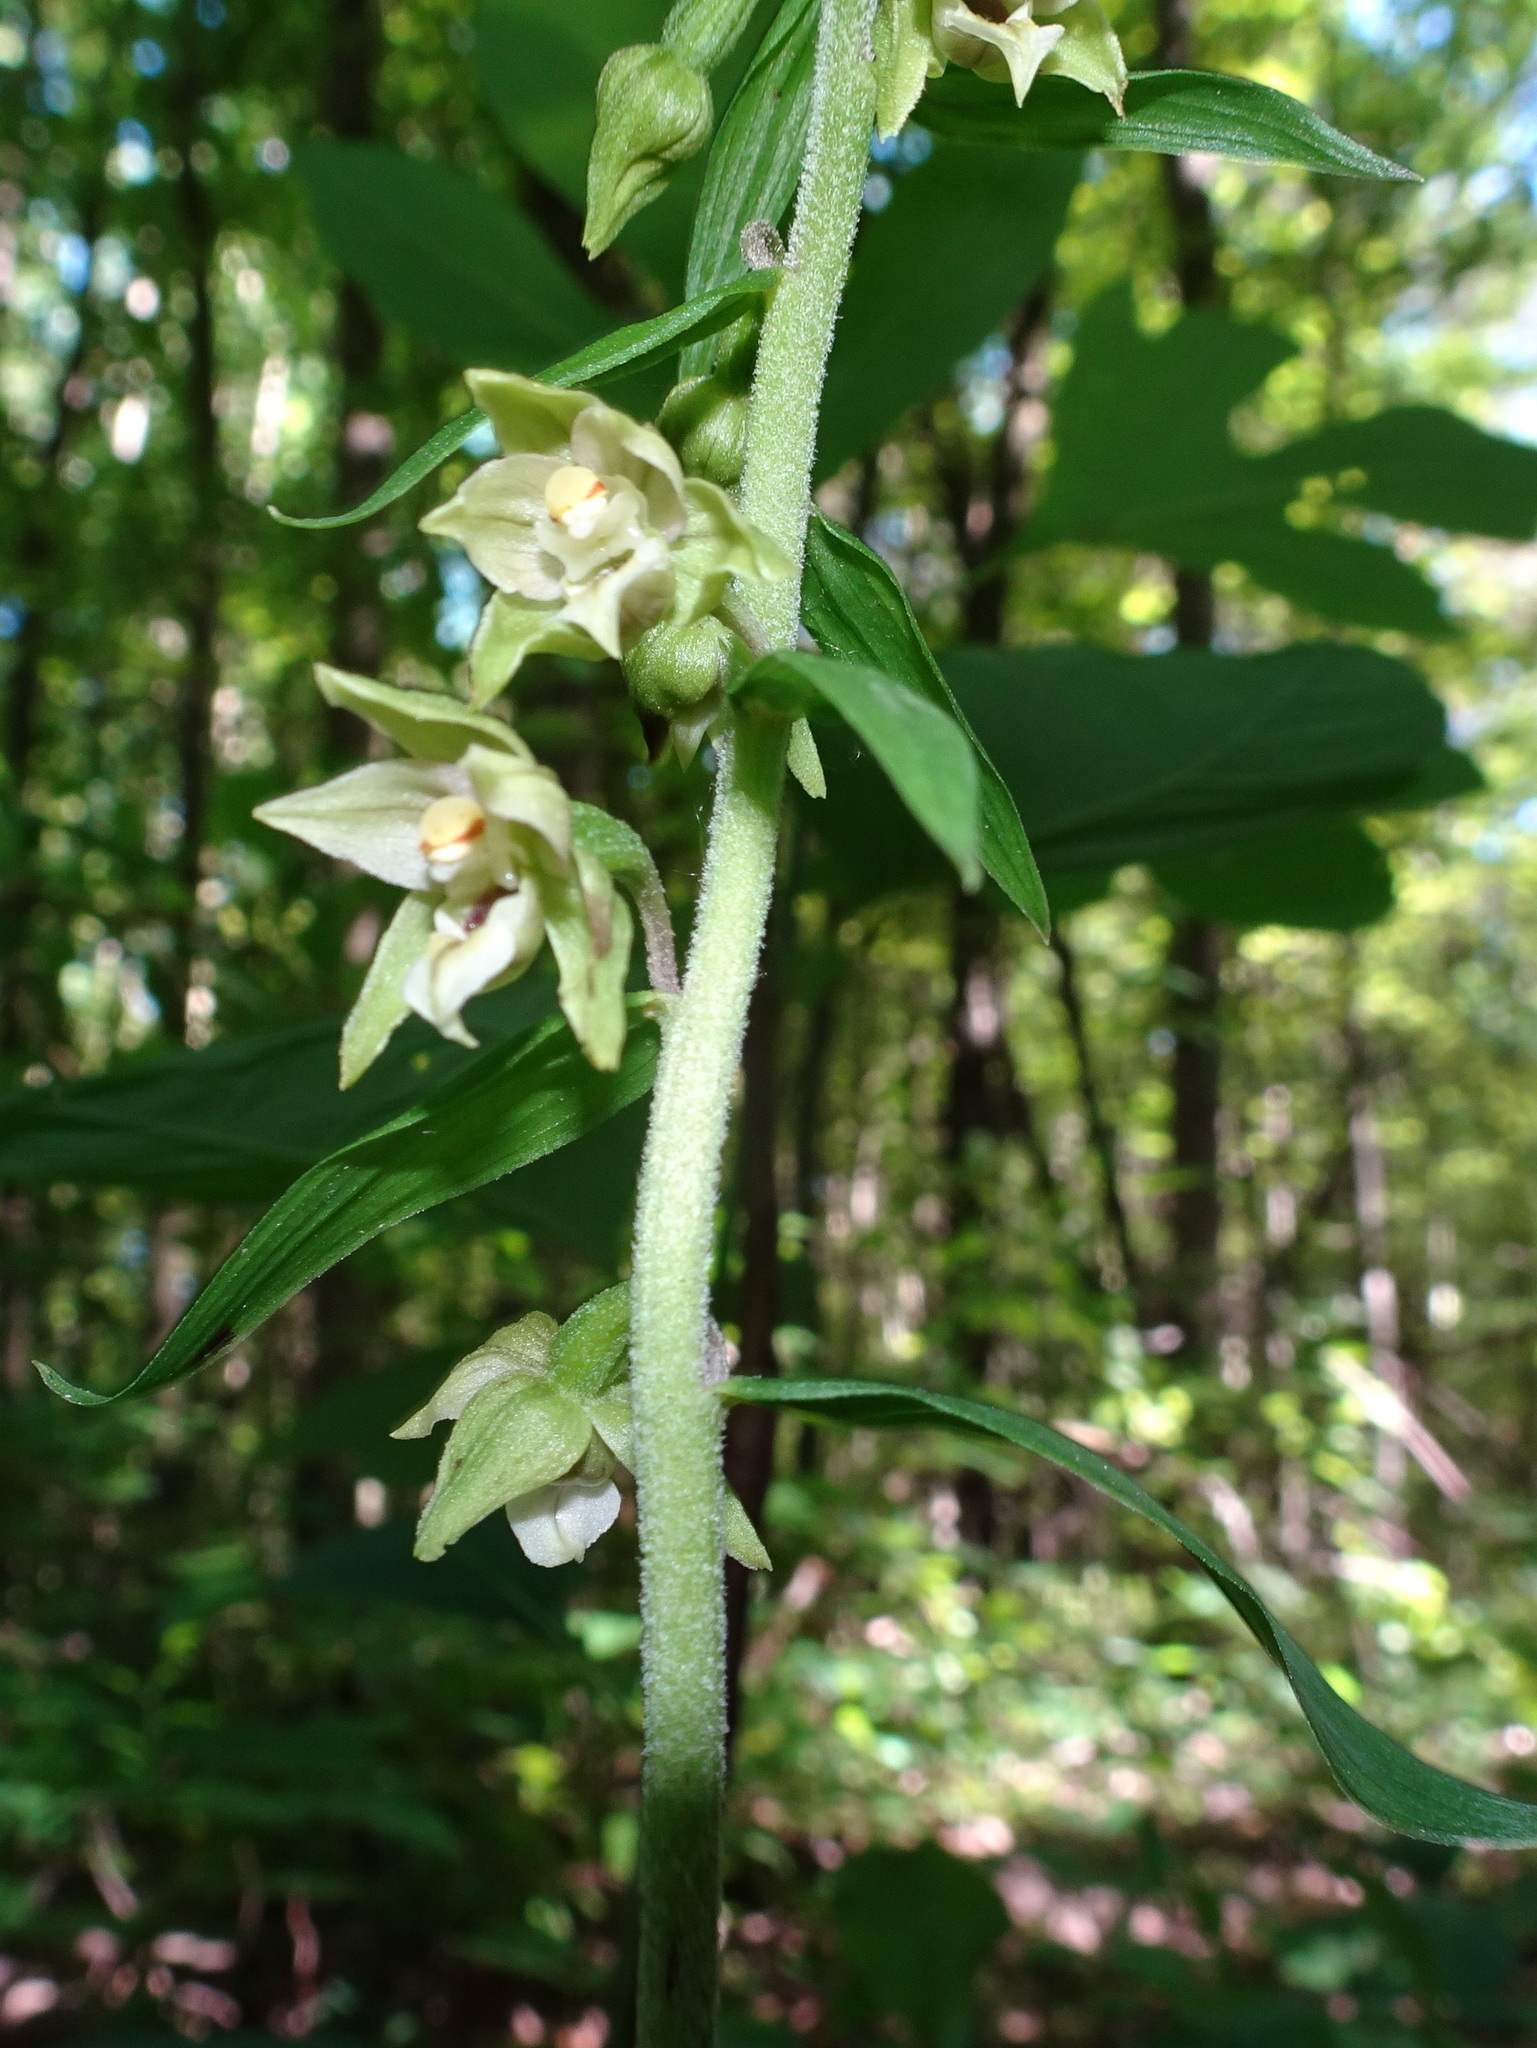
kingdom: Plantae
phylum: Tracheophyta
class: Liliopsida
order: Asparagales
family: Orchidaceae
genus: Epipactis
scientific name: Epipactis helleborine
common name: Broad-leaved helleborine
